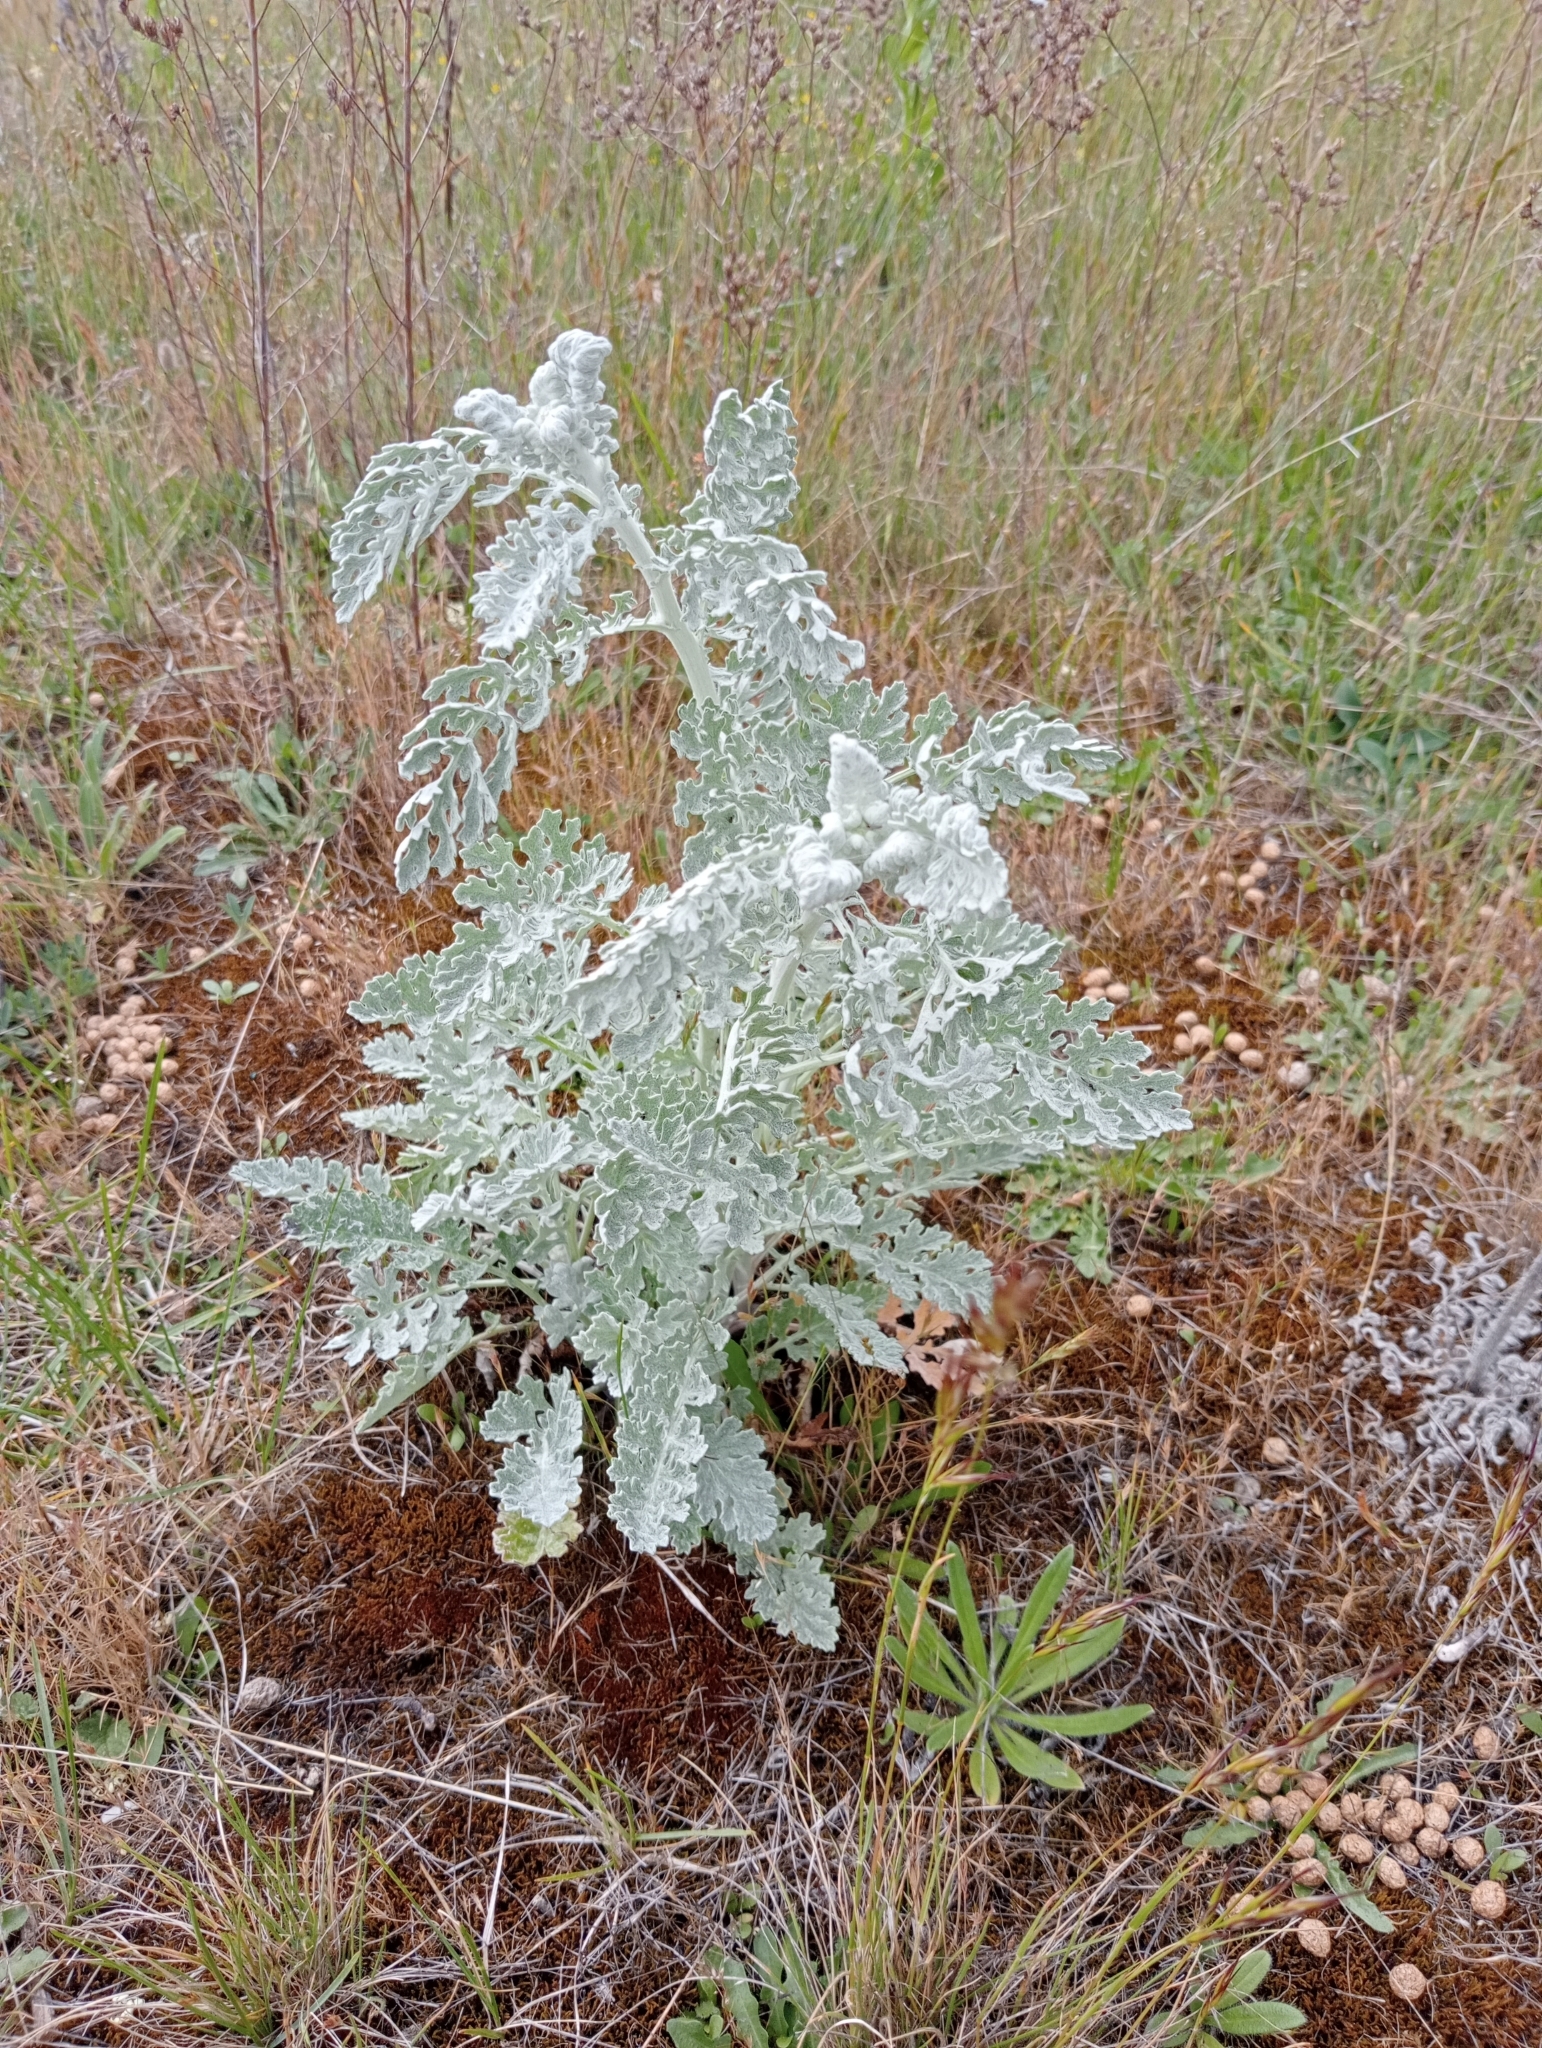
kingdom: Plantae
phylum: Tracheophyta
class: Magnoliopsida
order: Asterales
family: Asteraceae
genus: Jacobaea
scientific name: Jacobaea maritima
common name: Silver ragwort
